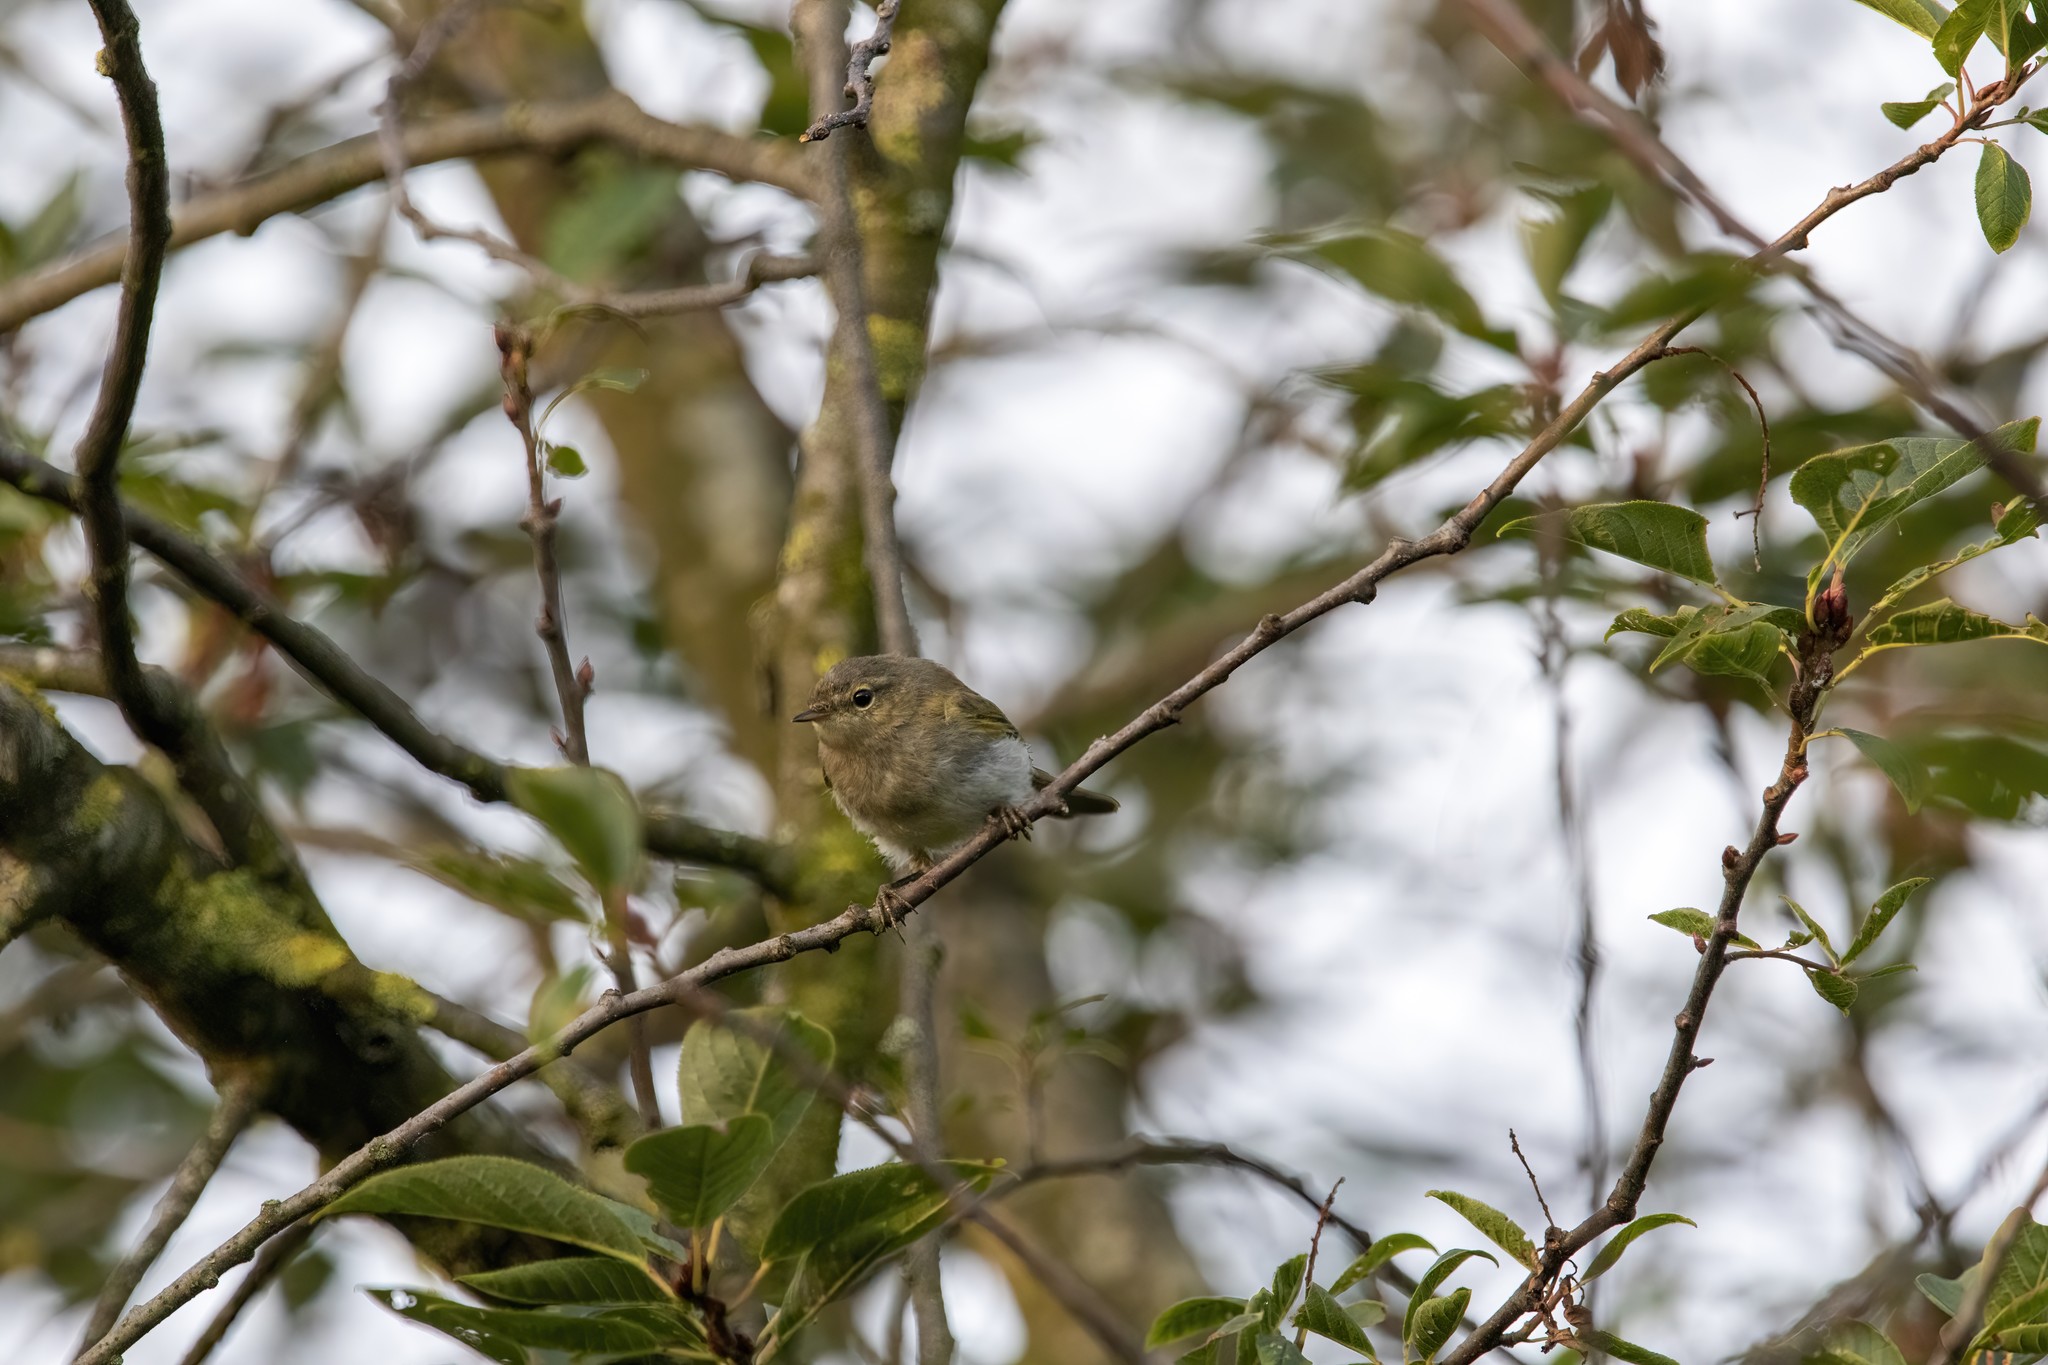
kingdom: Animalia
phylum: Chordata
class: Aves
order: Passeriformes
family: Phylloscopidae
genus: Phylloscopus
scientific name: Phylloscopus collybita
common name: Common chiffchaff
